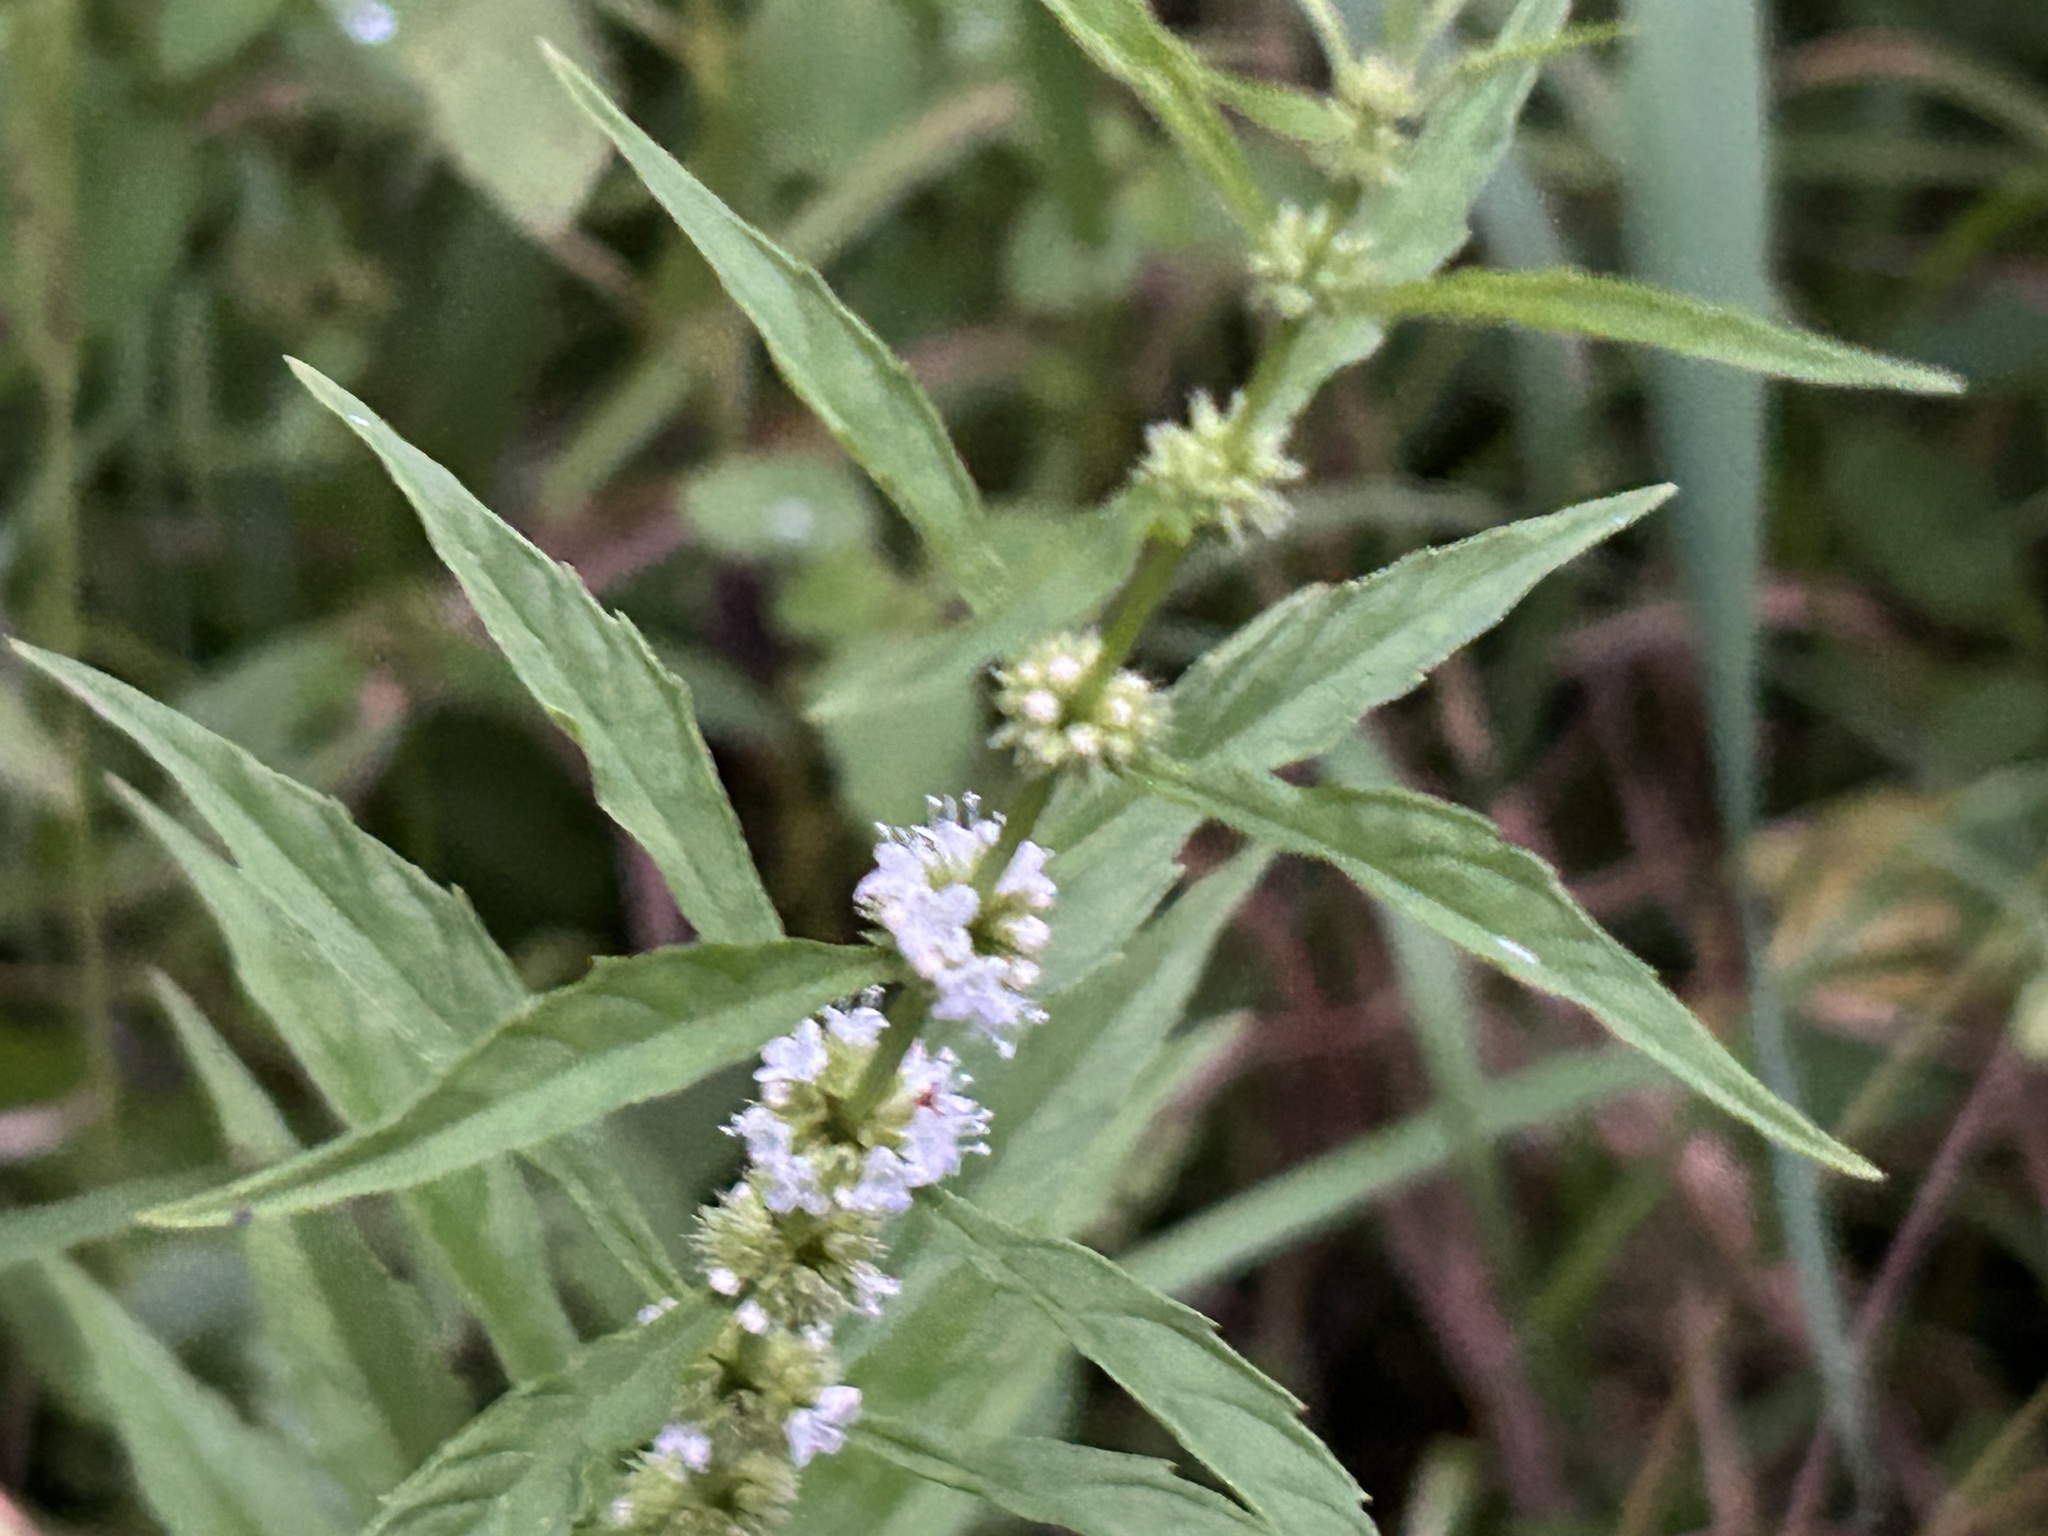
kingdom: Plantae
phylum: Tracheophyta
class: Magnoliopsida
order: Lamiales
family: Lamiaceae
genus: Lycopus
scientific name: Lycopus americanus
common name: American bugleweed
